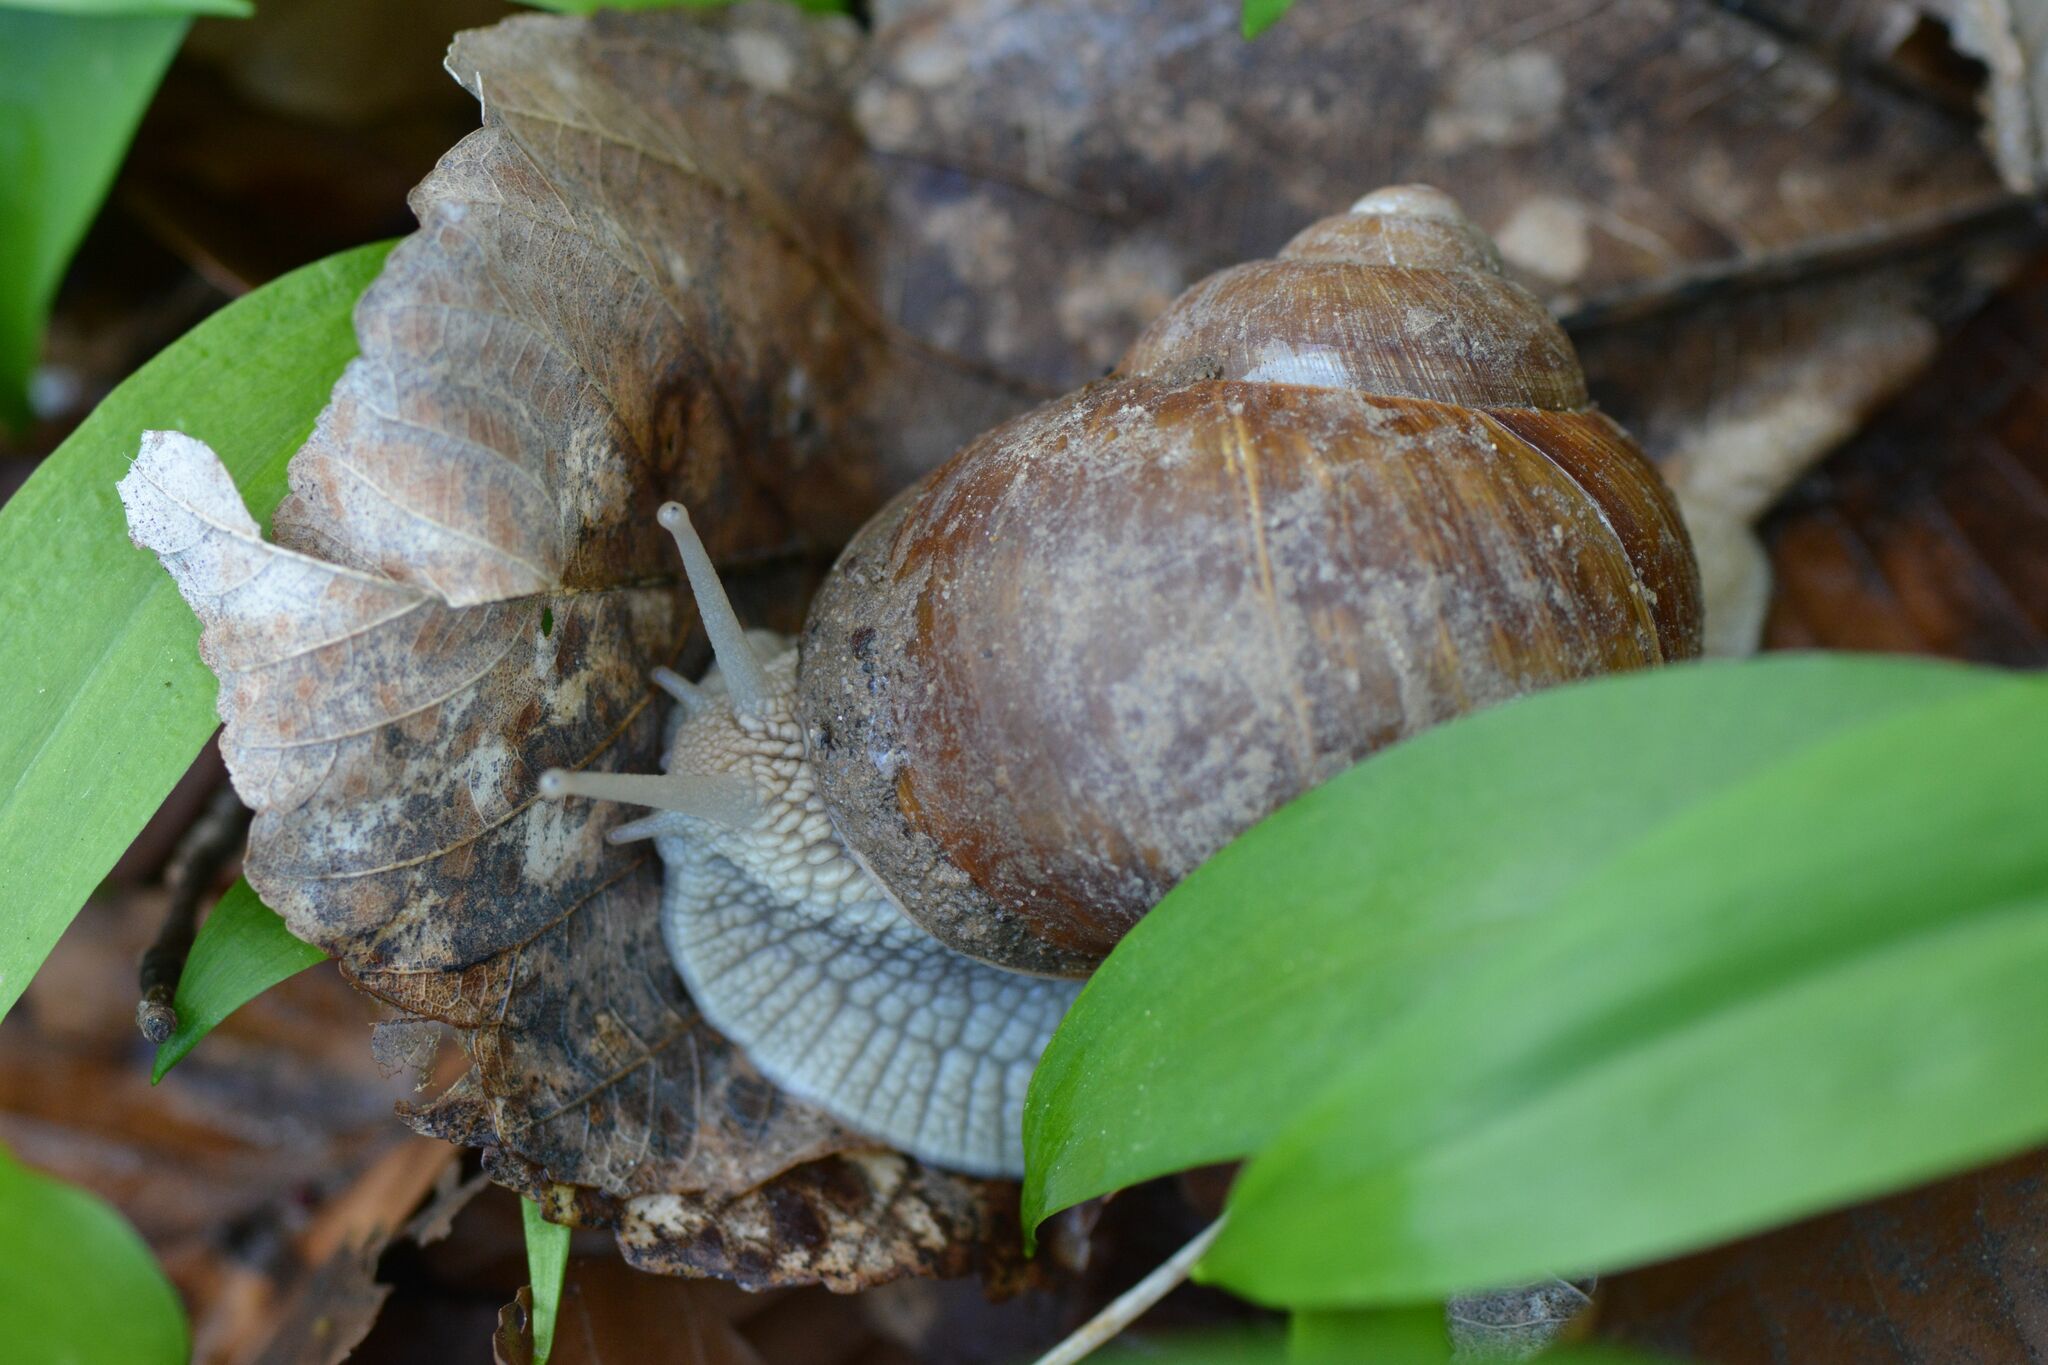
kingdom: Animalia
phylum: Mollusca
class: Gastropoda
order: Stylommatophora
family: Helicidae
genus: Helix
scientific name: Helix pomatia
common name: Roman snail
